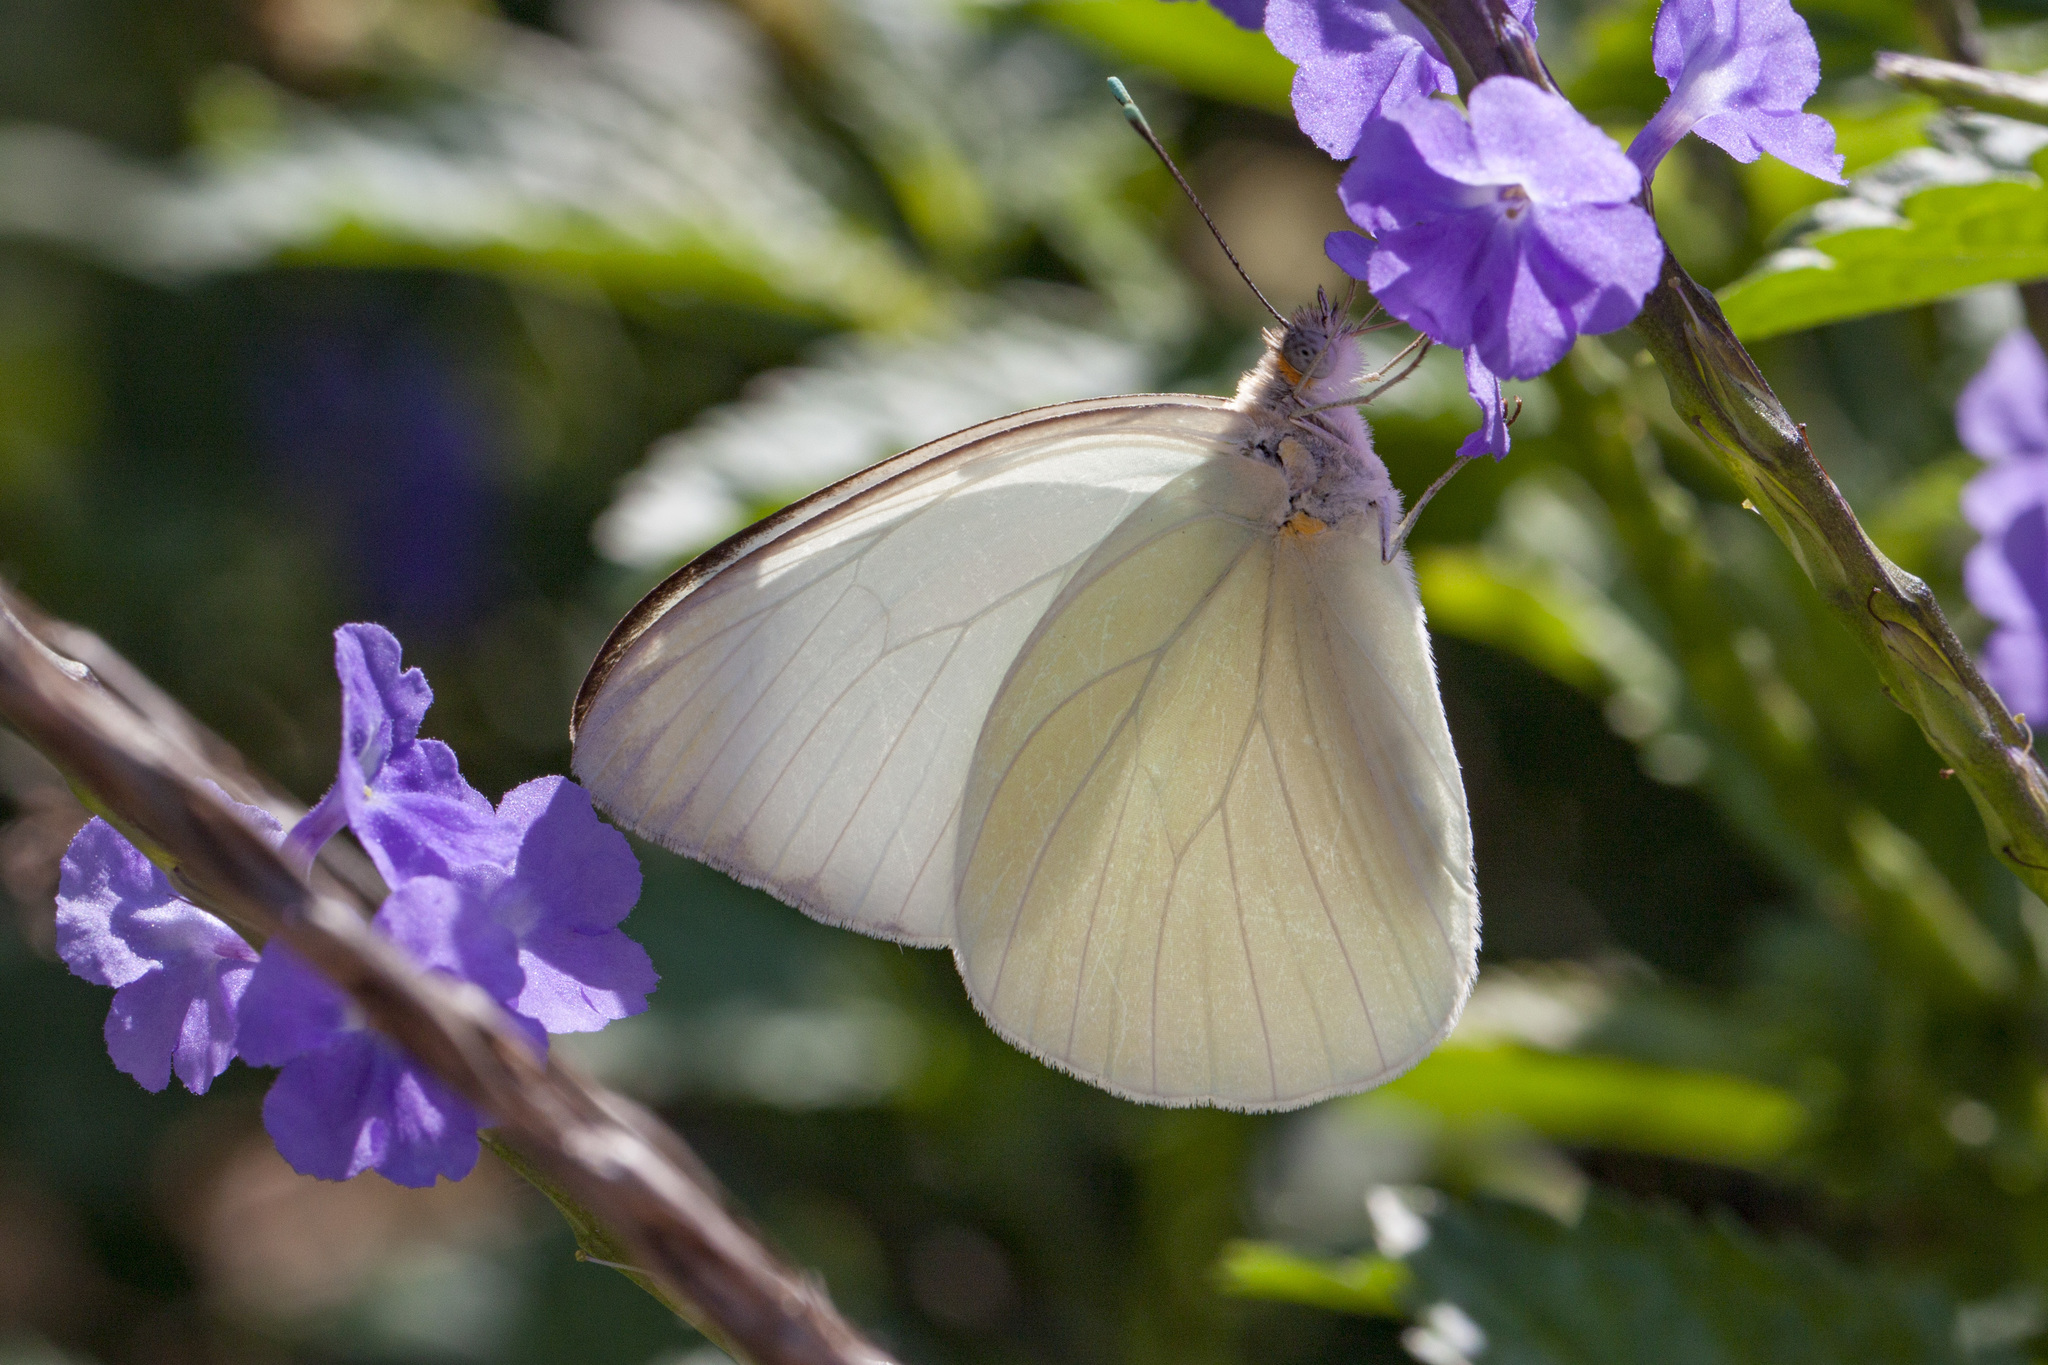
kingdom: Animalia
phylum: Arthropoda
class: Insecta
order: Lepidoptera
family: Pieridae
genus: Ascia
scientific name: Ascia monuste
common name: Great southern white
